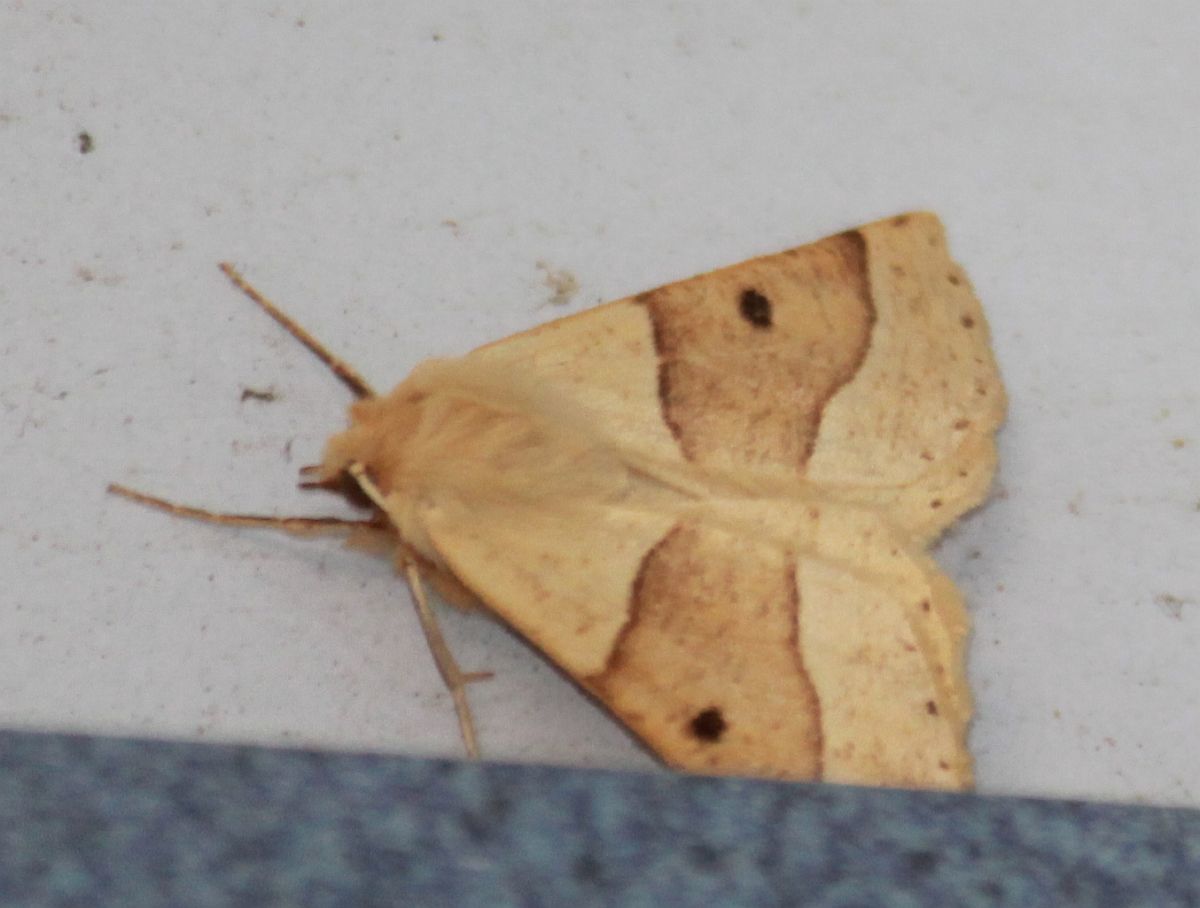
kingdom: Animalia
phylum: Arthropoda
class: Insecta
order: Lepidoptera
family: Geometridae
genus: Crocallis
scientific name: Crocallis elinguaria
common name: Scalloped oak
